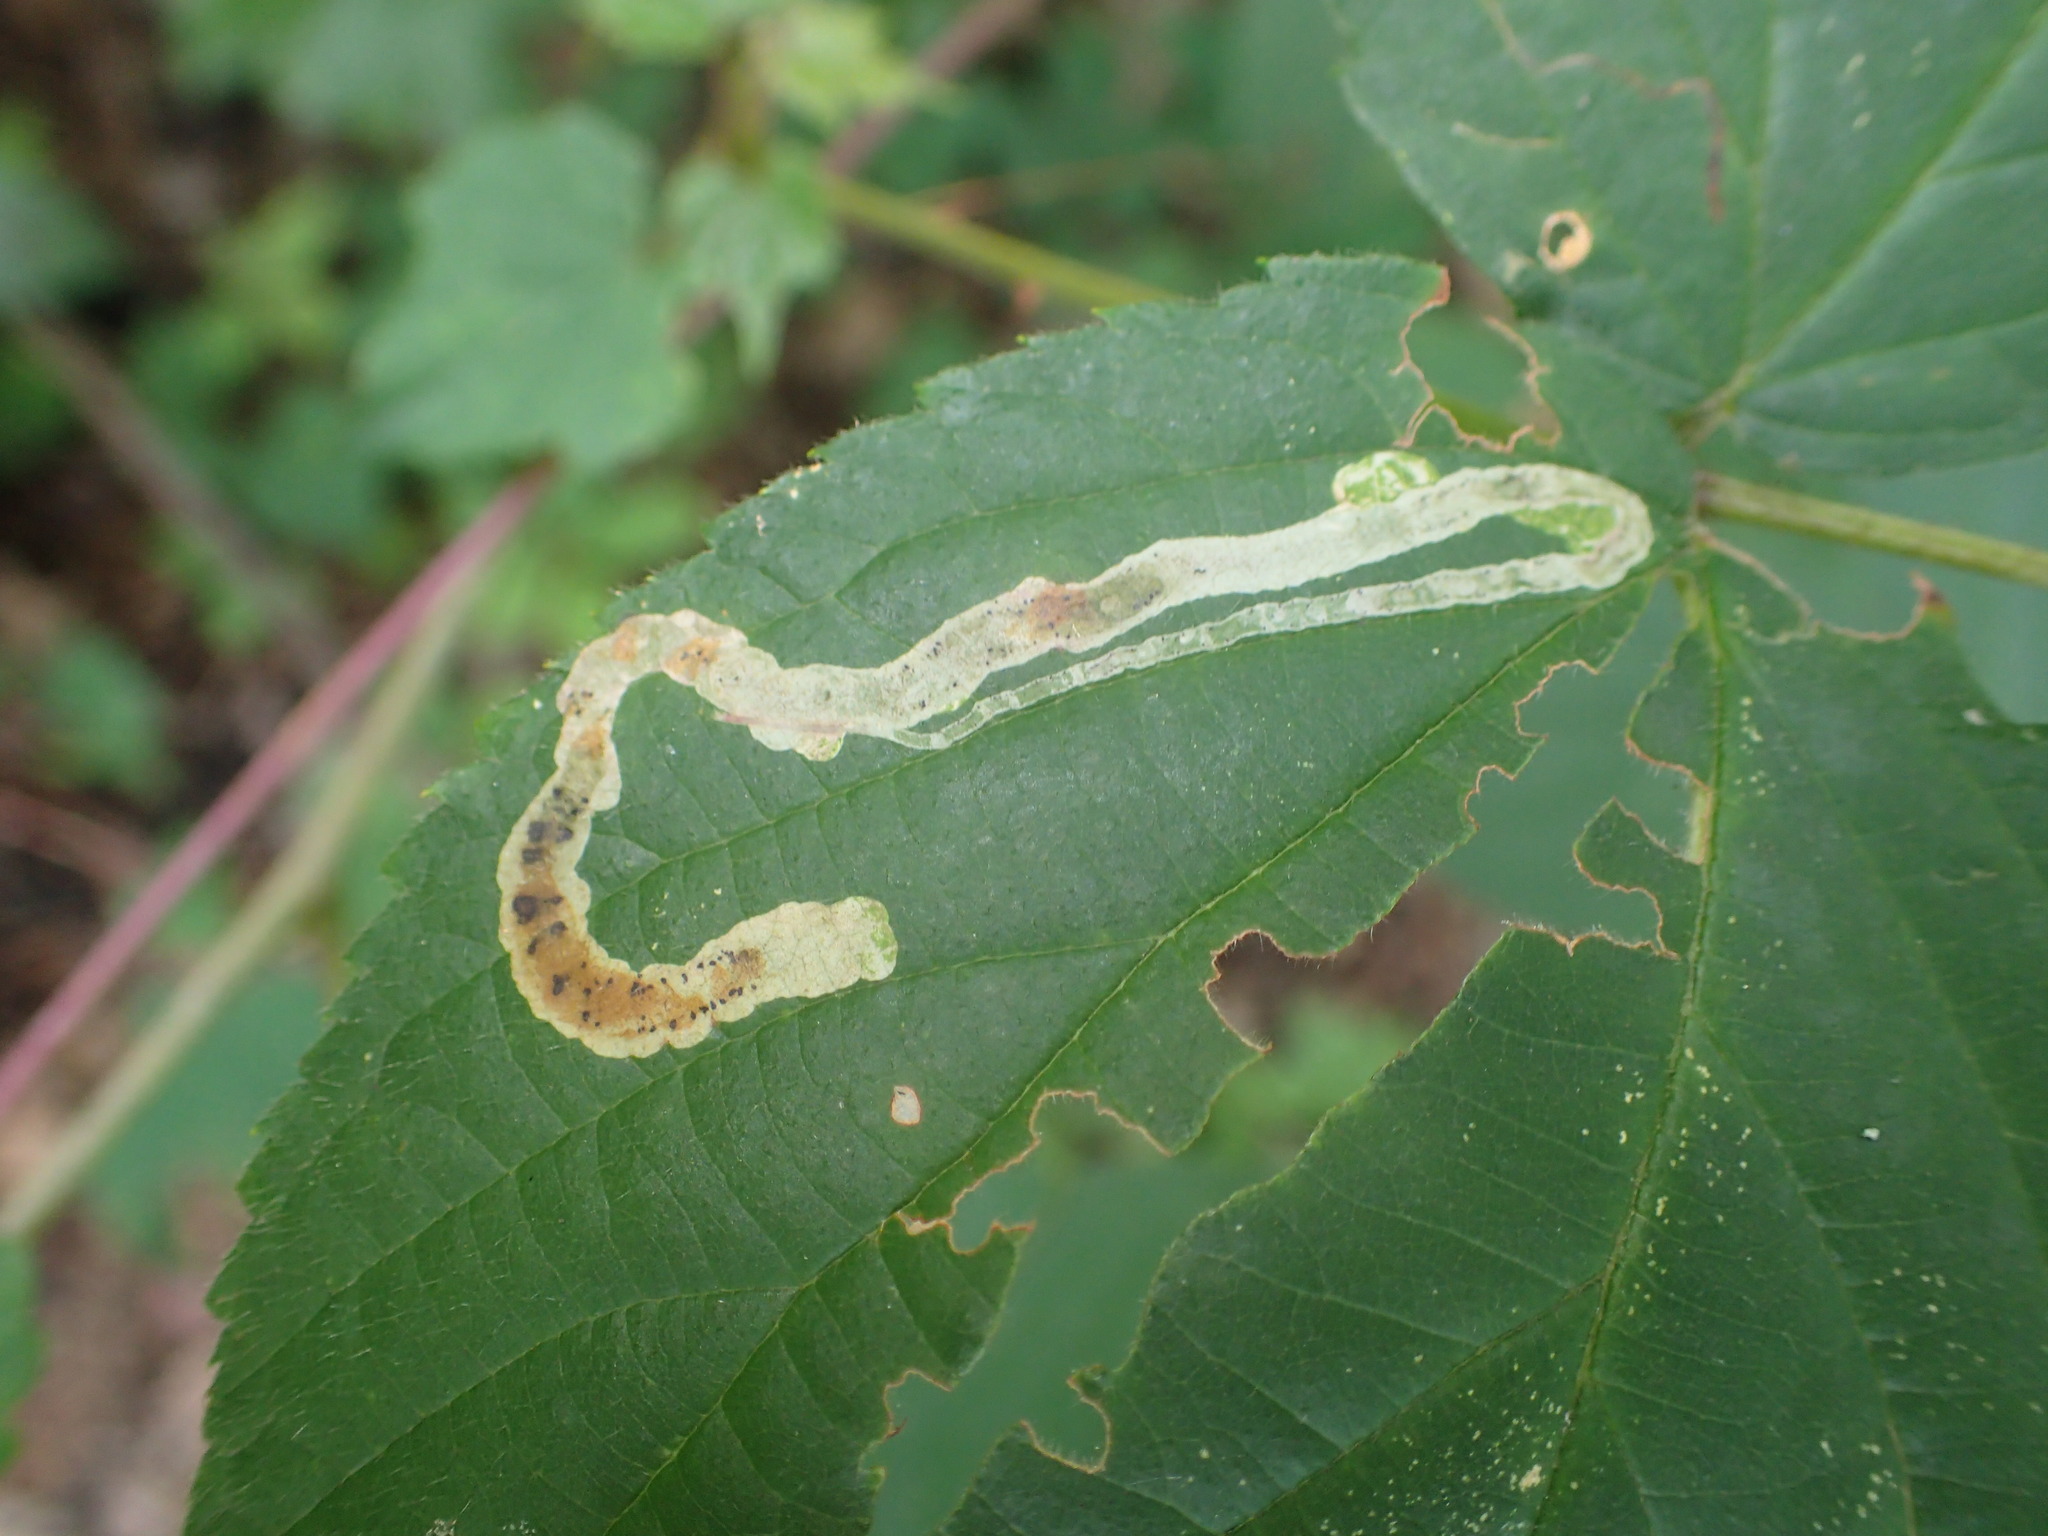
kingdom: Animalia
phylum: Arthropoda
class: Insecta
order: Diptera
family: Agromyzidae
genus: Agromyza
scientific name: Agromyza vockerothi
